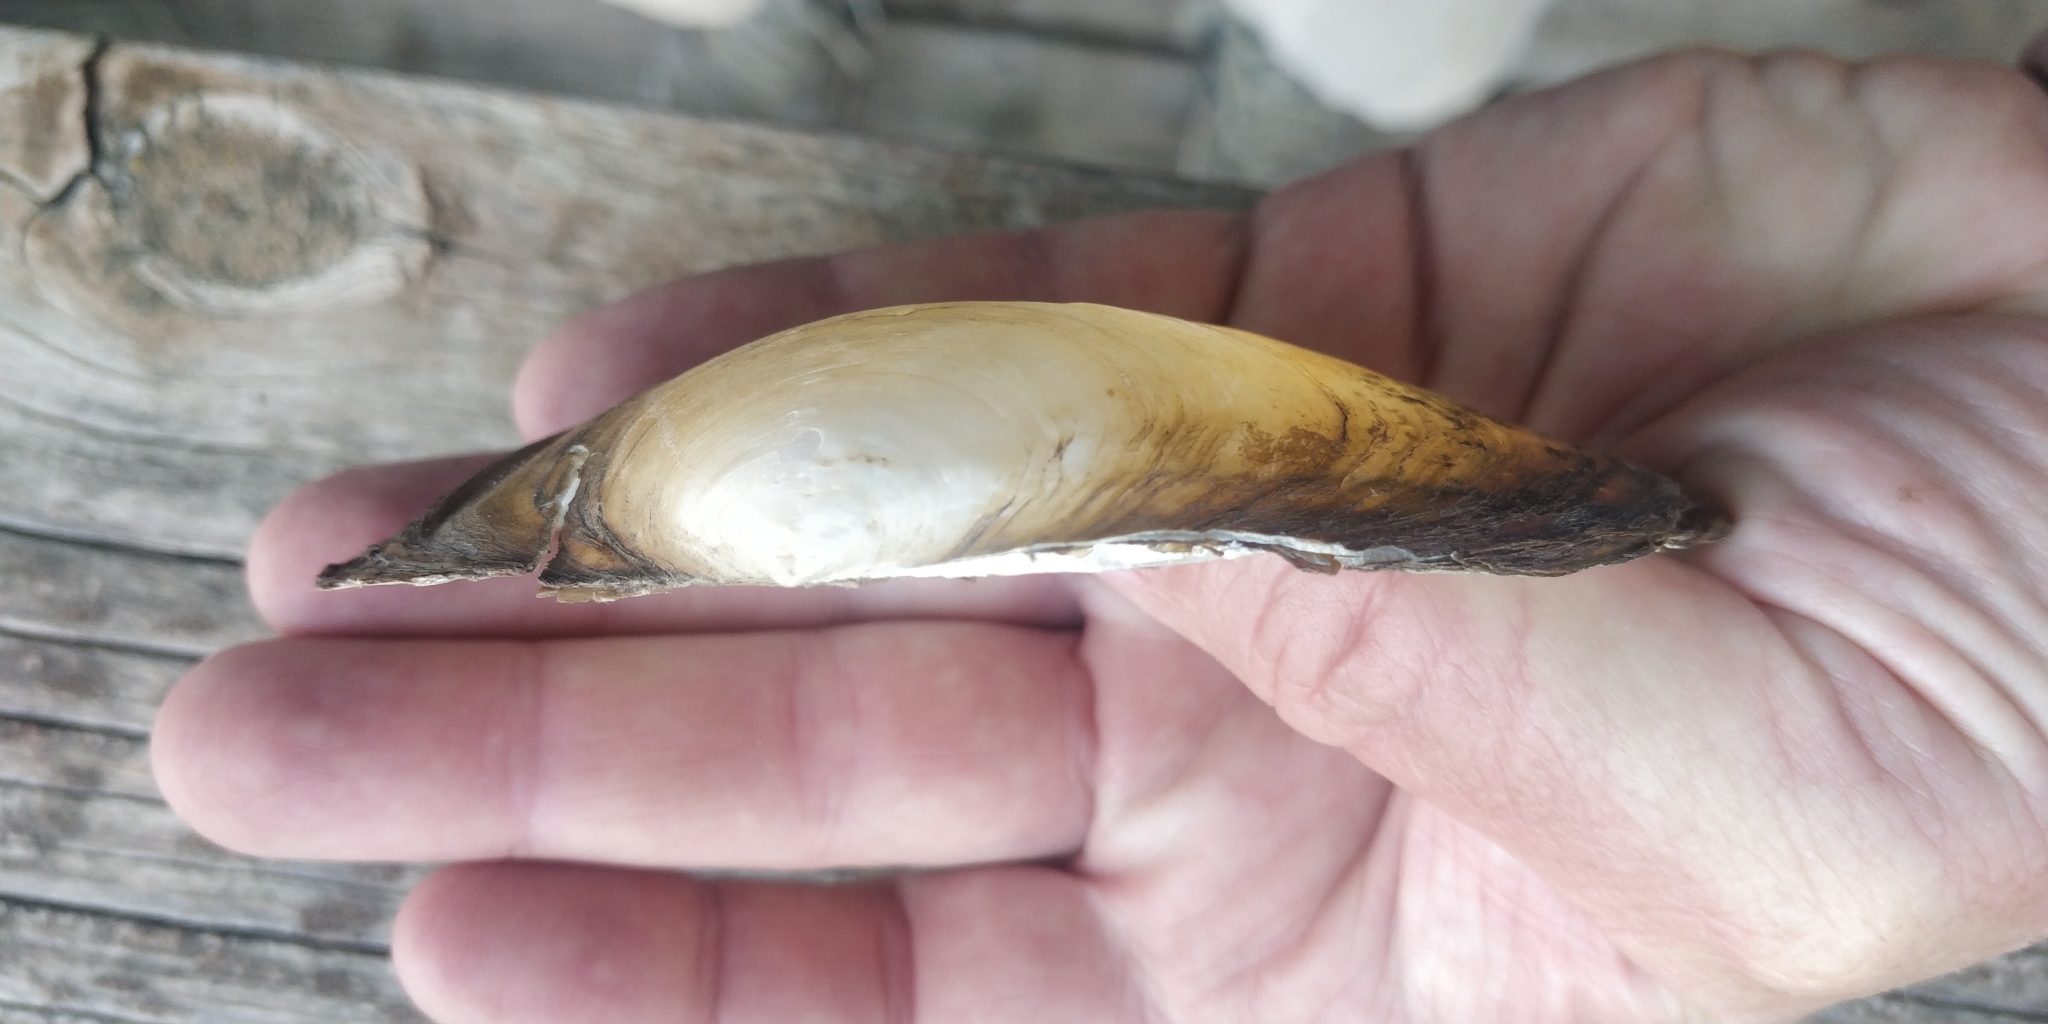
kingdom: Animalia
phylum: Mollusca
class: Bivalvia
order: Unionida
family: Unionidae
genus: Pyganodon
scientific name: Pyganodon grandis
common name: Giant floater
